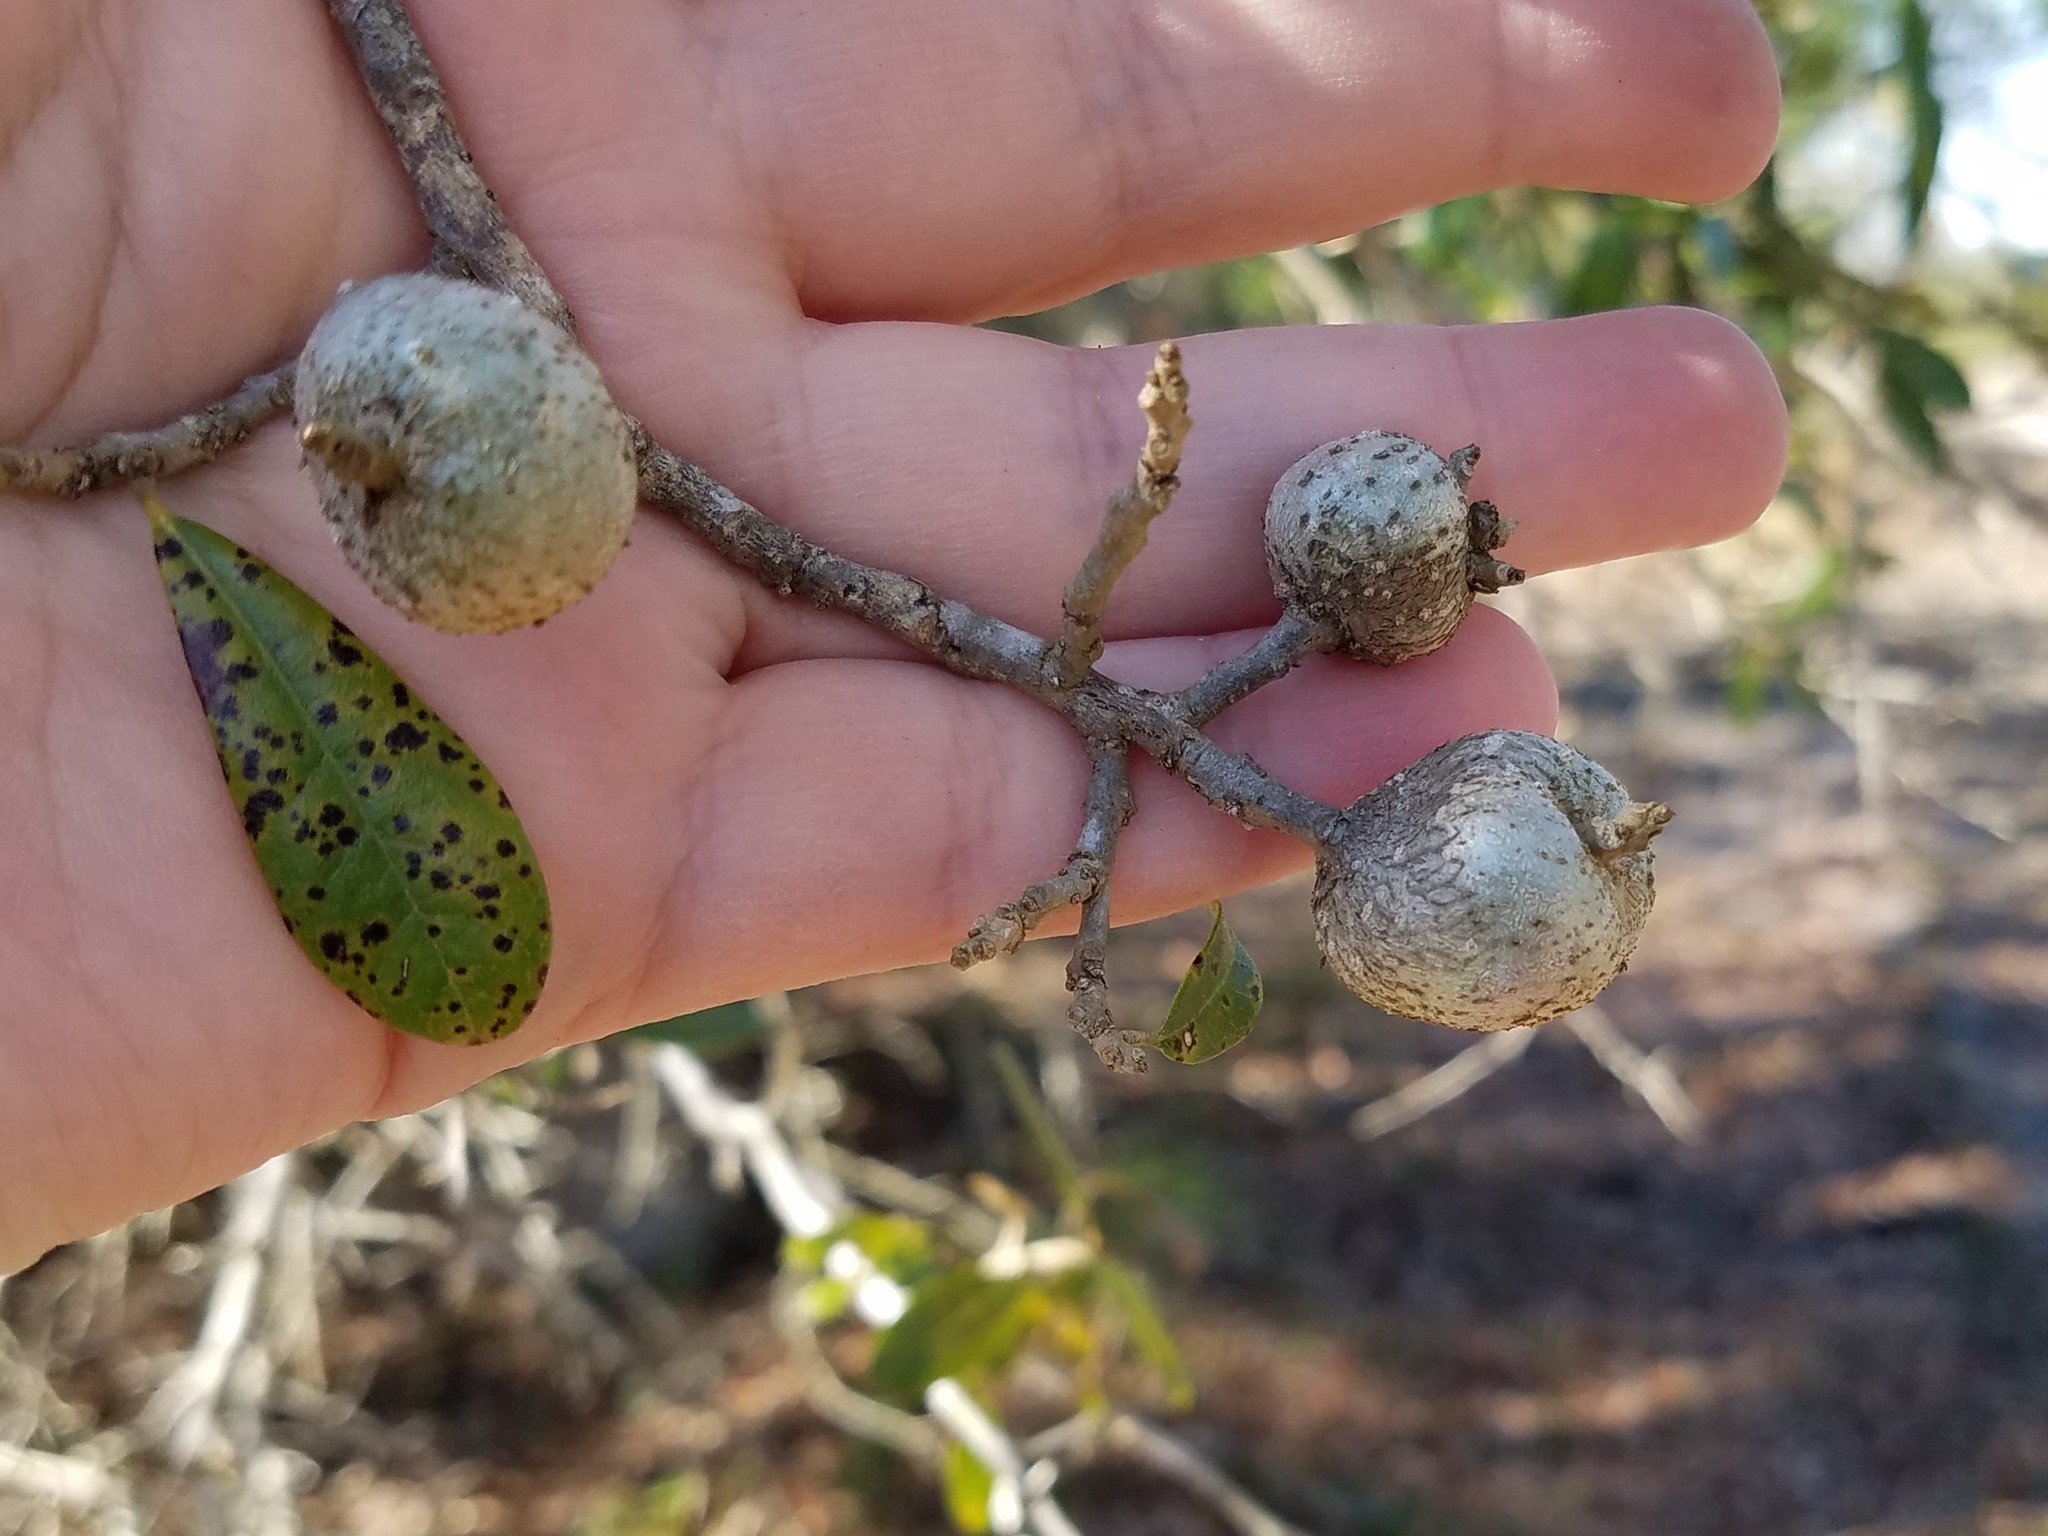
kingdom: Animalia
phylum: Arthropoda
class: Insecta
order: Hymenoptera
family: Cynipidae
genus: Callirhytis
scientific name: Callirhytis
